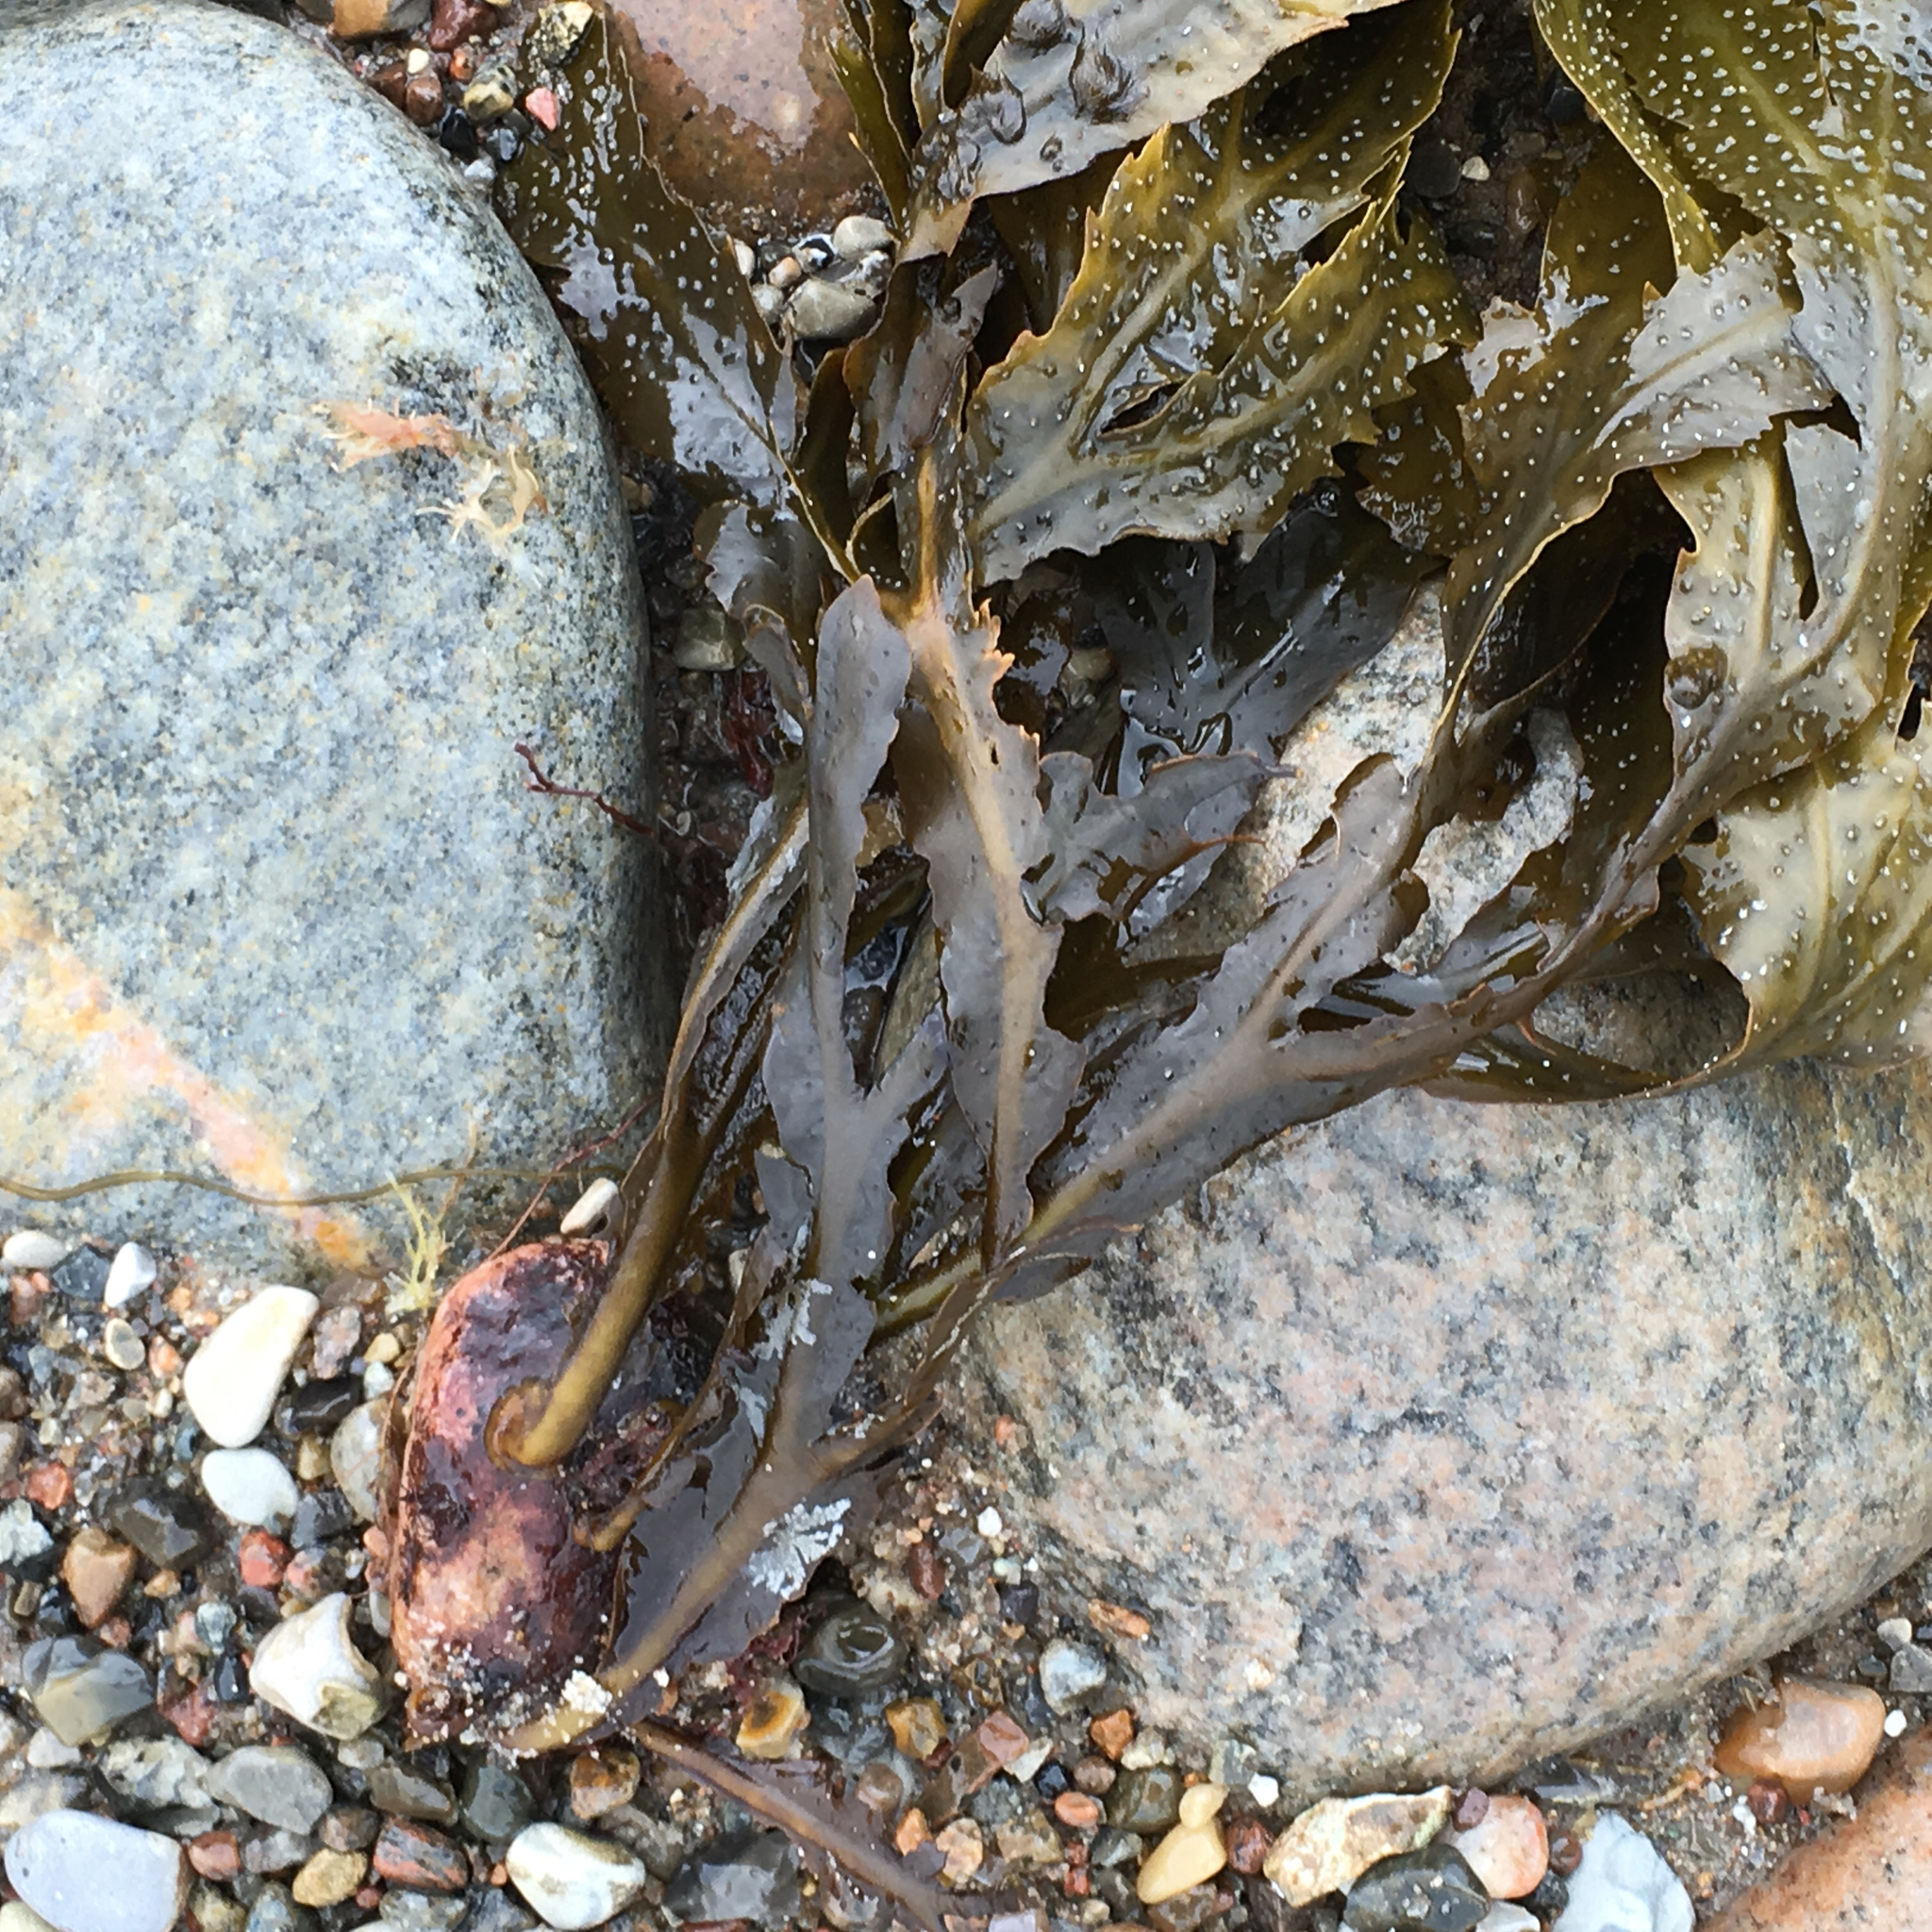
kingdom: Chromista
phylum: Ochrophyta
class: Phaeophyceae
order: Fucales
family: Fucaceae
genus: Fucus
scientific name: Fucus serratus
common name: Toothed wrack
